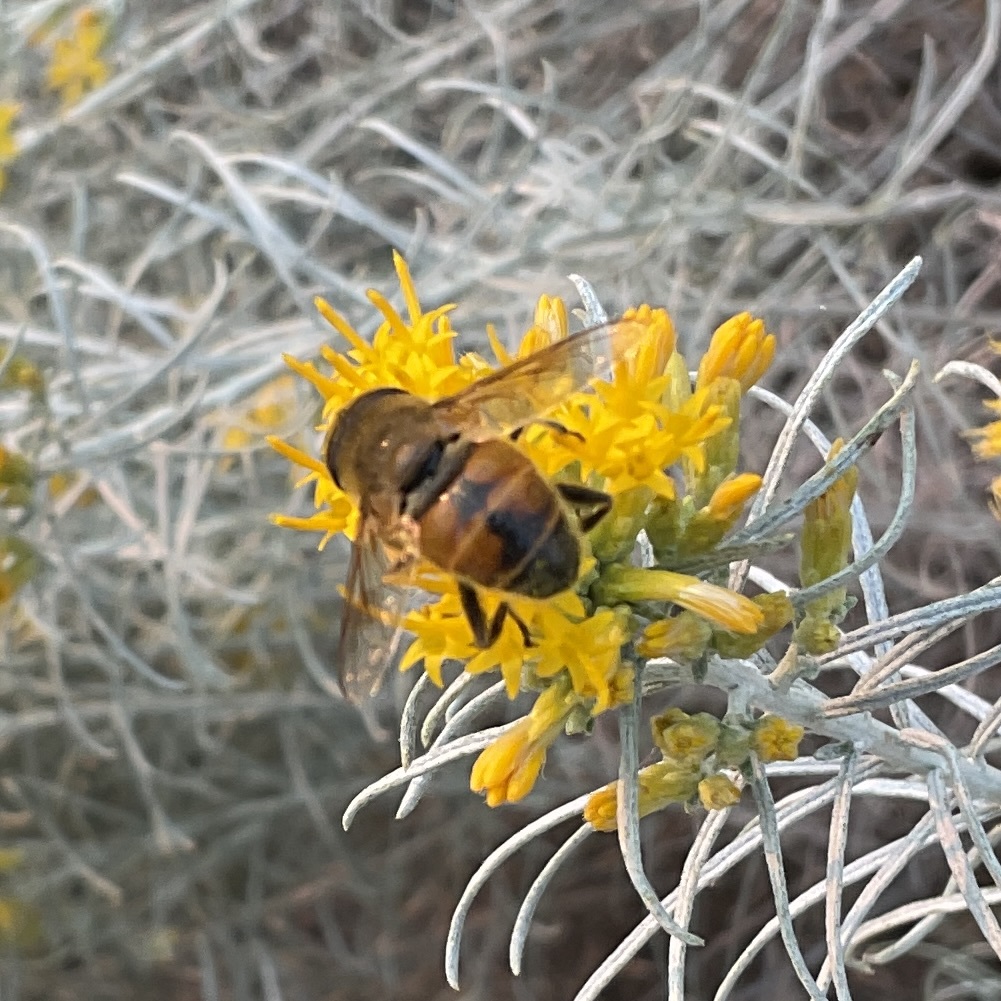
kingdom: Animalia
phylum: Arthropoda
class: Insecta
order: Diptera
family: Syrphidae
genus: Eristalis
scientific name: Eristalis tenax
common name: Drone fly
